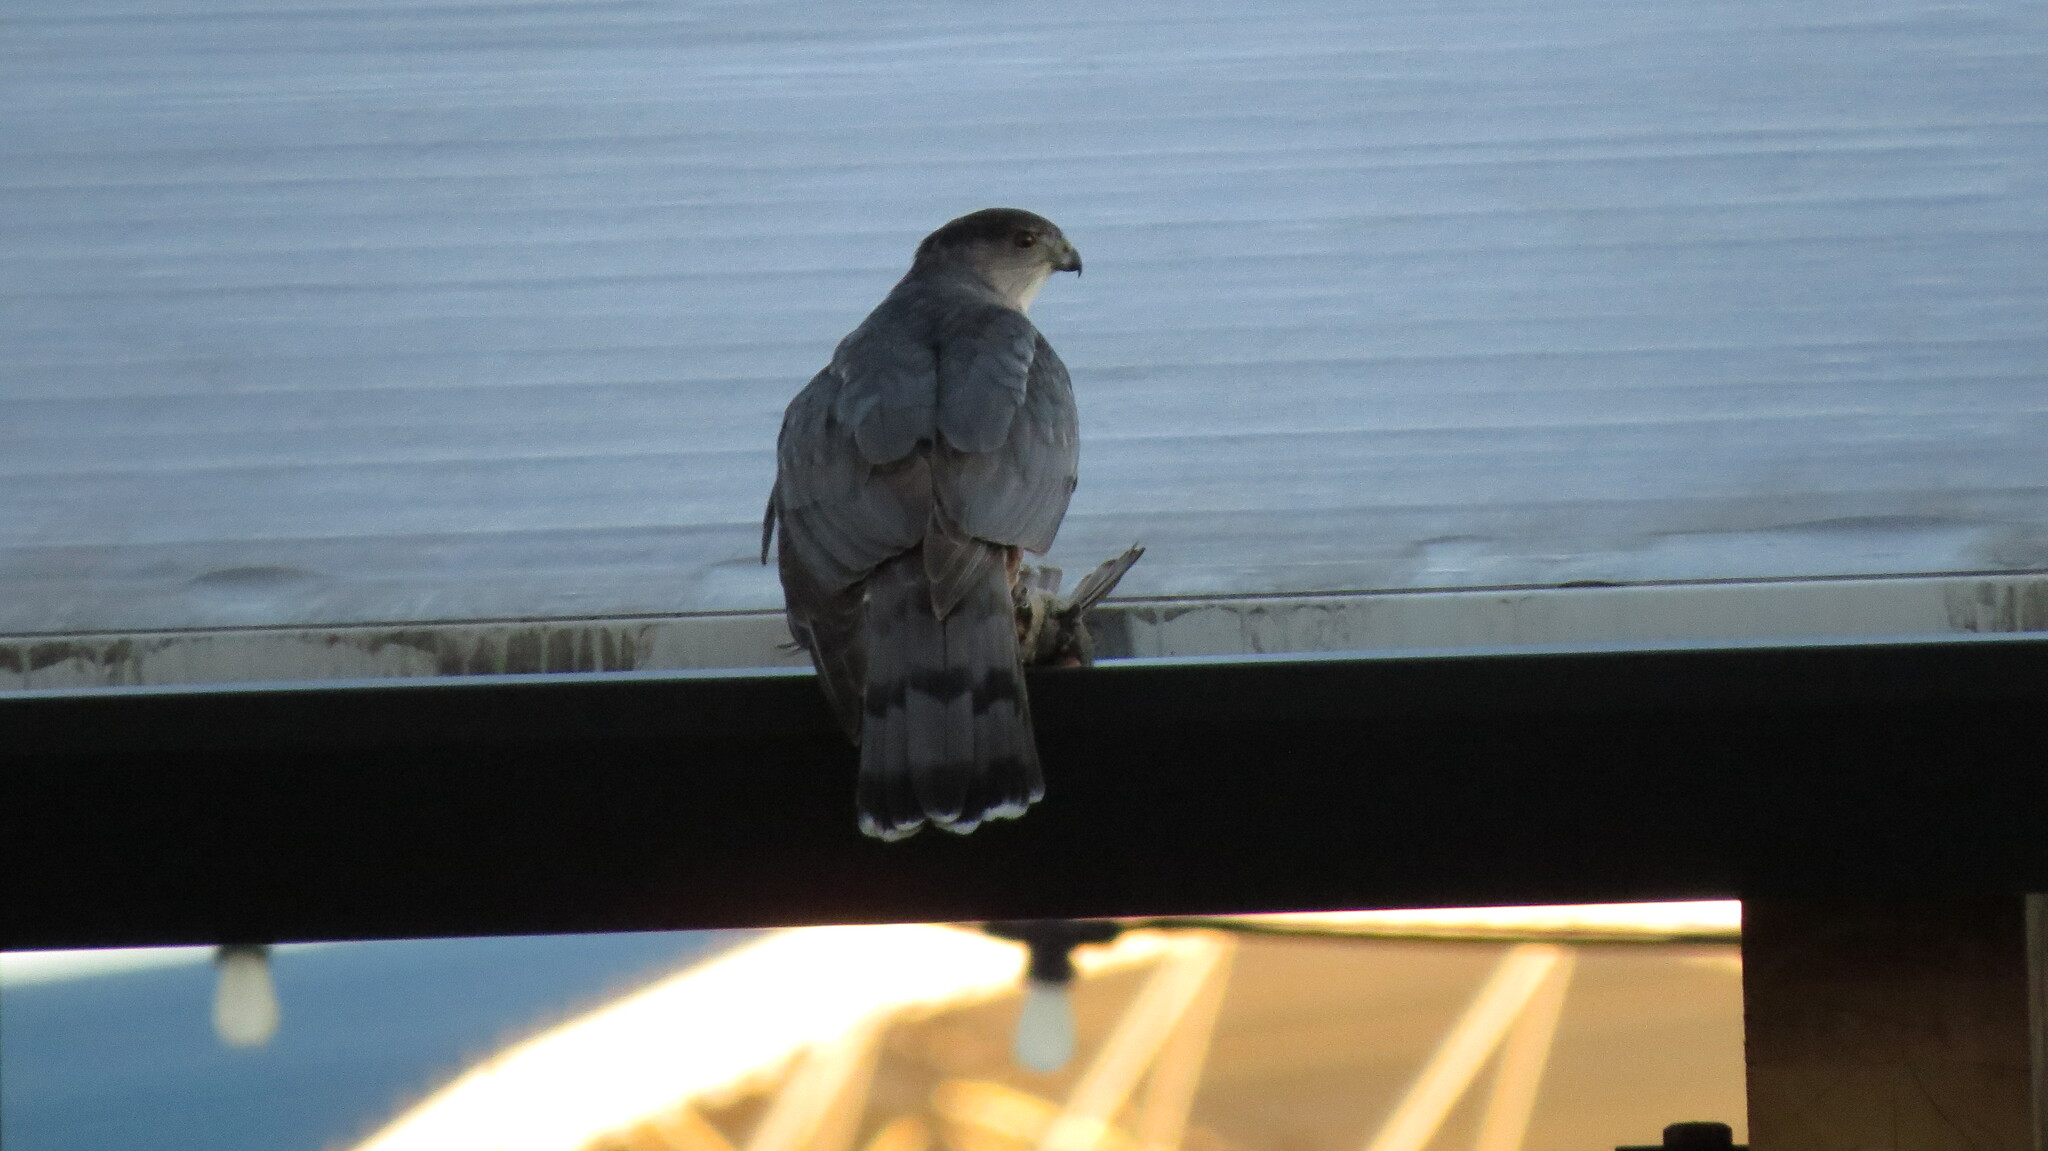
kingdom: Animalia
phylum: Chordata
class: Aves
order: Accipitriformes
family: Accipitridae
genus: Accipiter
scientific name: Accipiter cooperii
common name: Cooper's hawk
